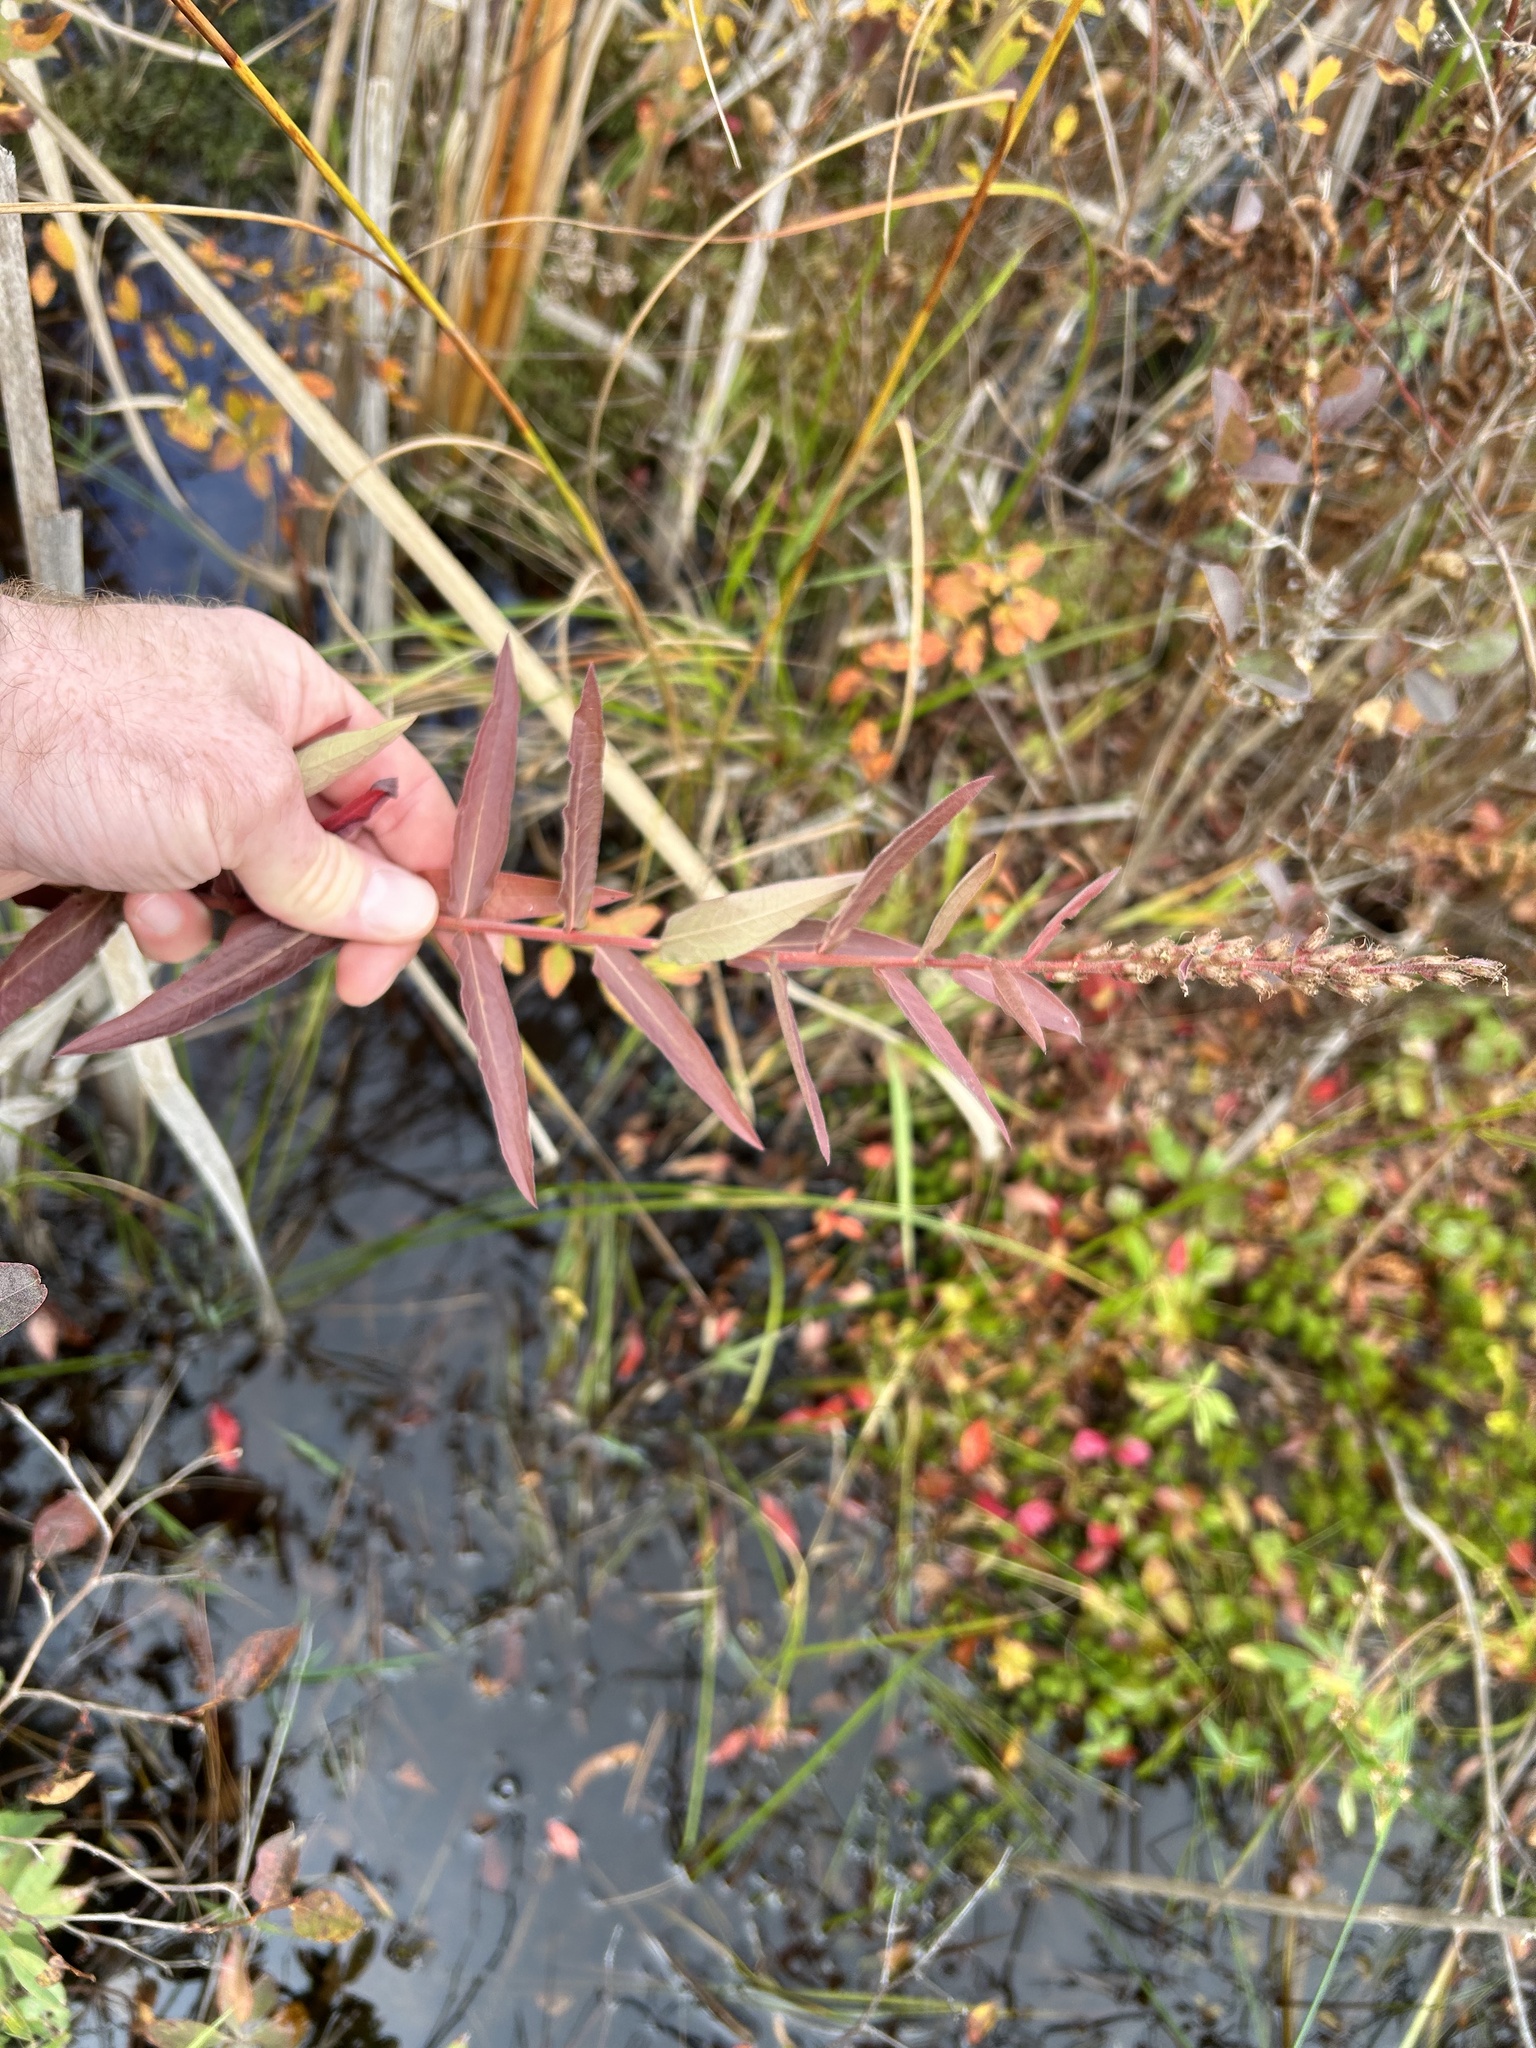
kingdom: Plantae
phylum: Tracheophyta
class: Magnoliopsida
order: Myrtales
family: Lythraceae
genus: Lythrum
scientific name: Lythrum salicaria
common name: Purple loosestrife
